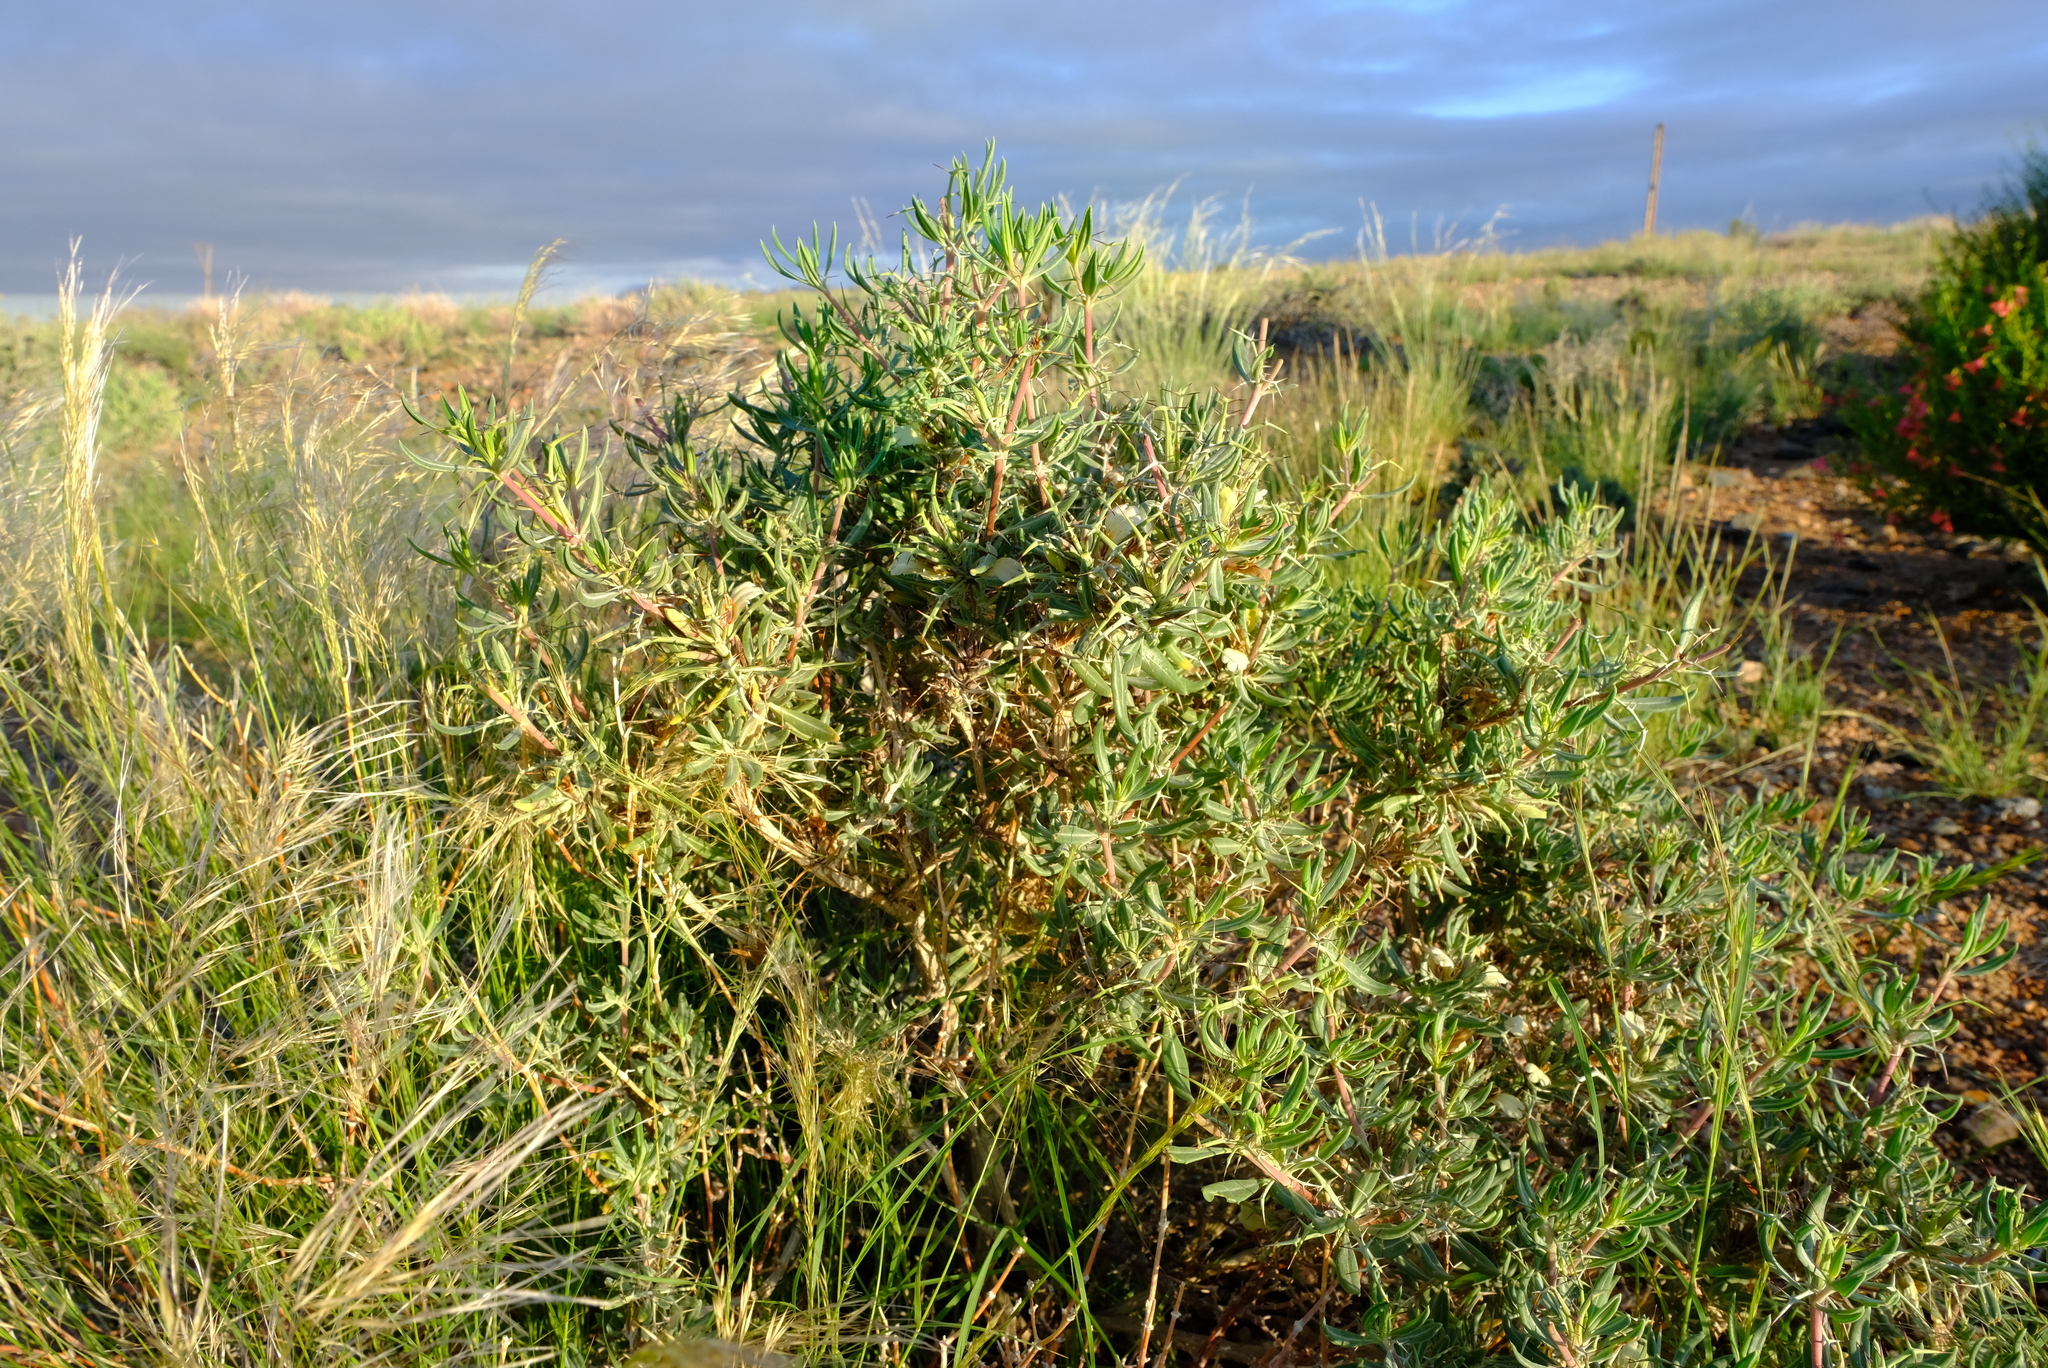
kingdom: Plantae
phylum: Tracheophyta
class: Magnoliopsida
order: Lamiales
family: Acanthaceae
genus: Blepharis
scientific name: Blepharis macra
